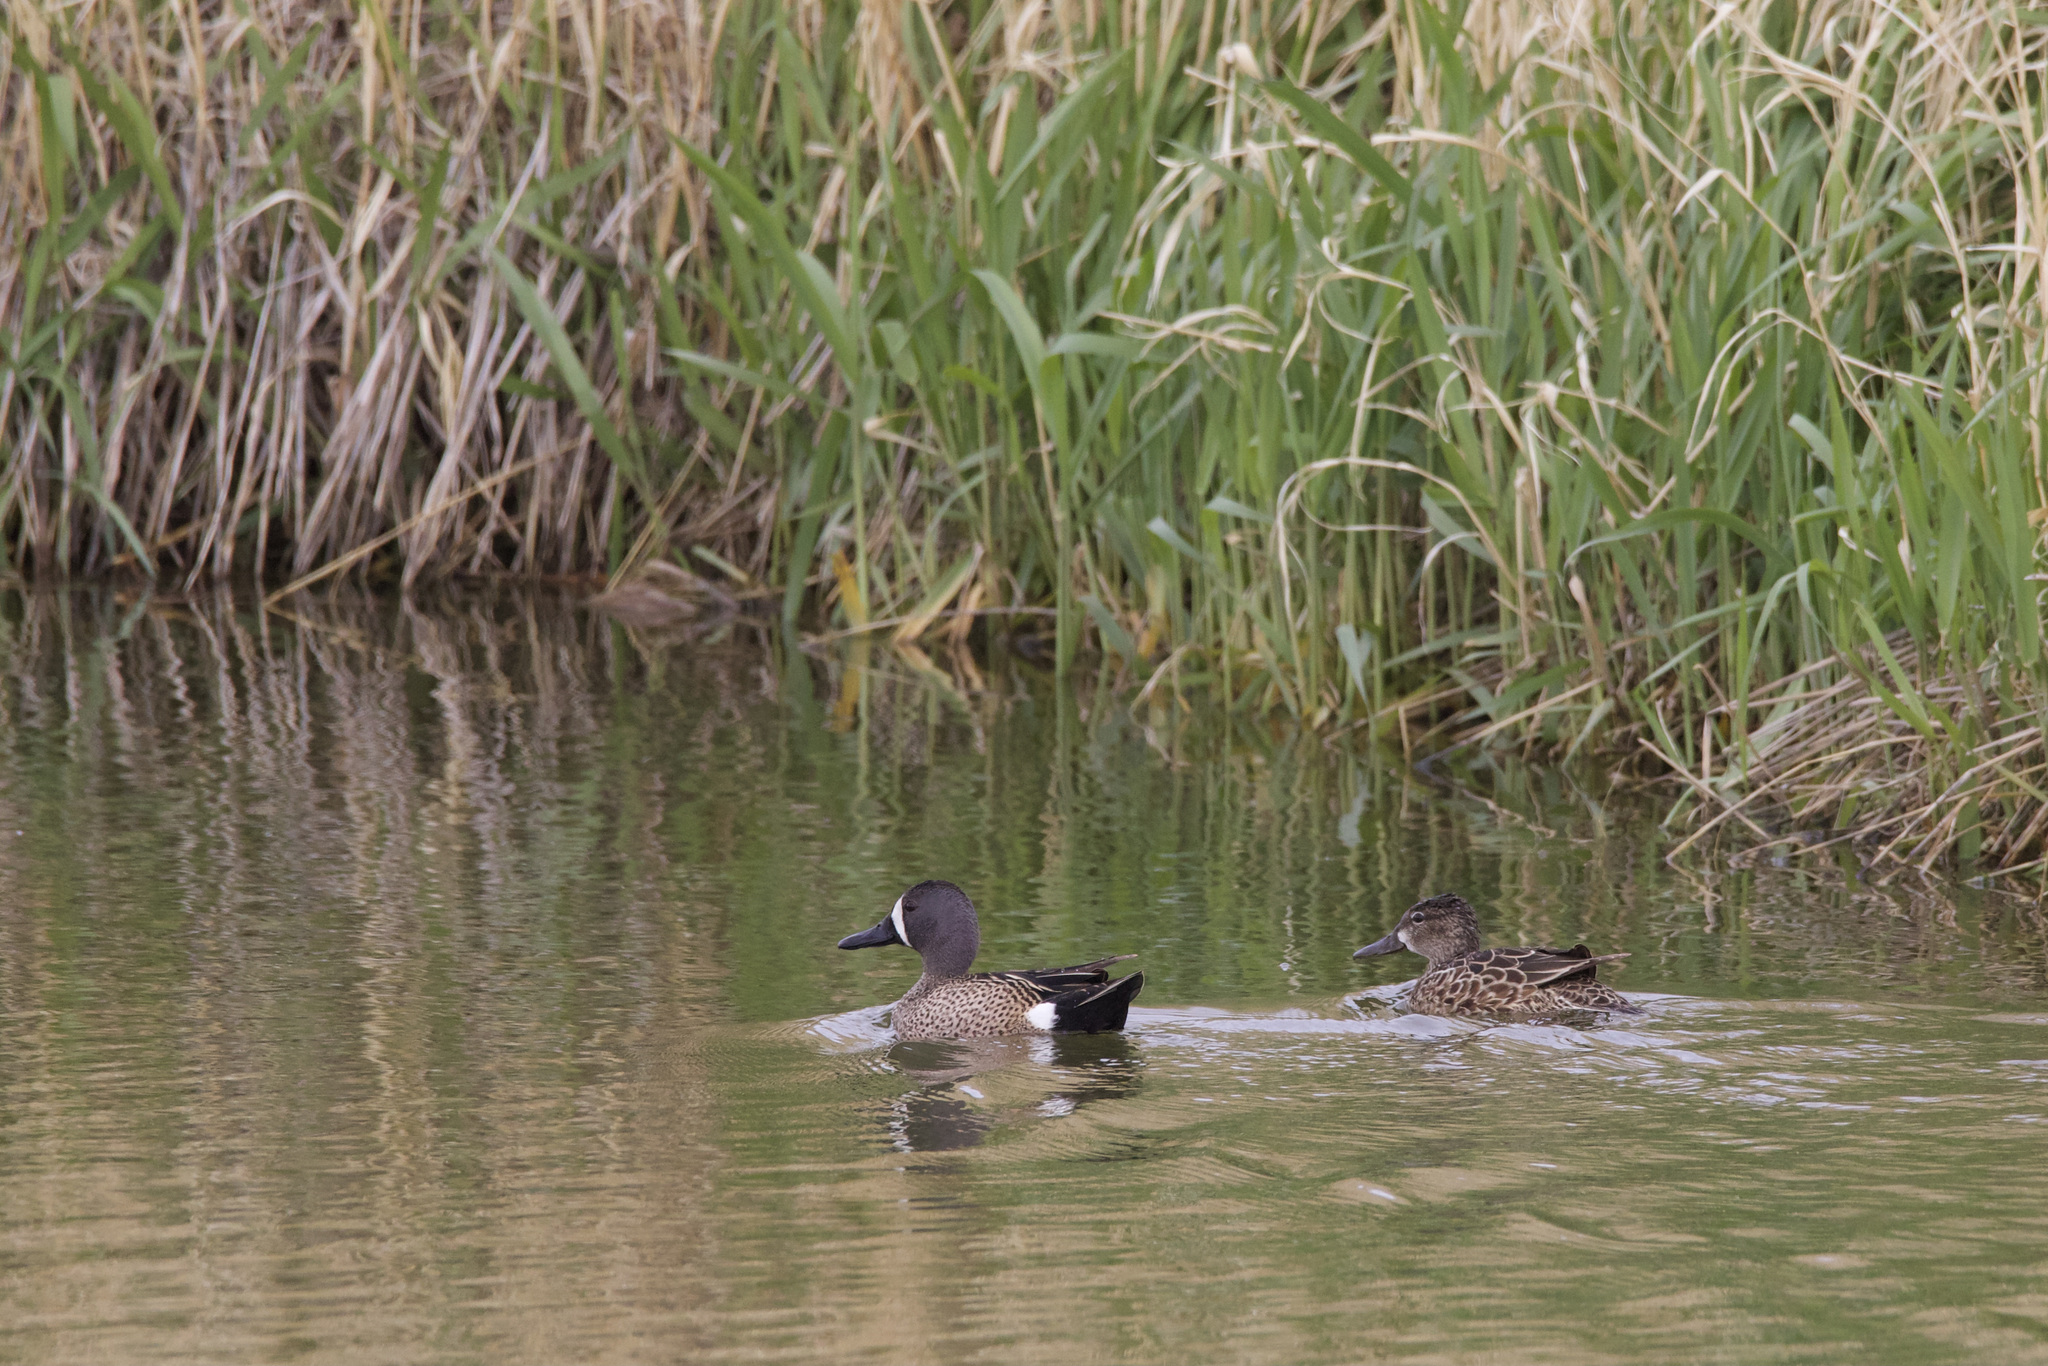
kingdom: Animalia
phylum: Chordata
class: Aves
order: Anseriformes
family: Anatidae
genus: Spatula
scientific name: Spatula discors
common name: Blue-winged teal
